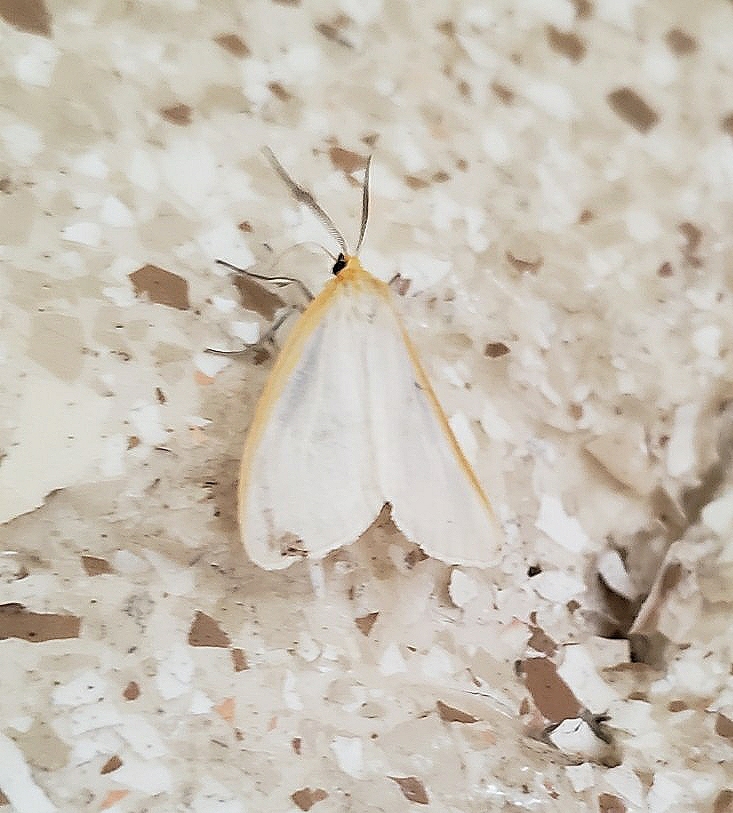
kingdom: Animalia
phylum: Arthropoda
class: Insecta
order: Lepidoptera
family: Erebidae
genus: Cycnia
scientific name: Cycnia tenera
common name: Delicate cycnia moth
